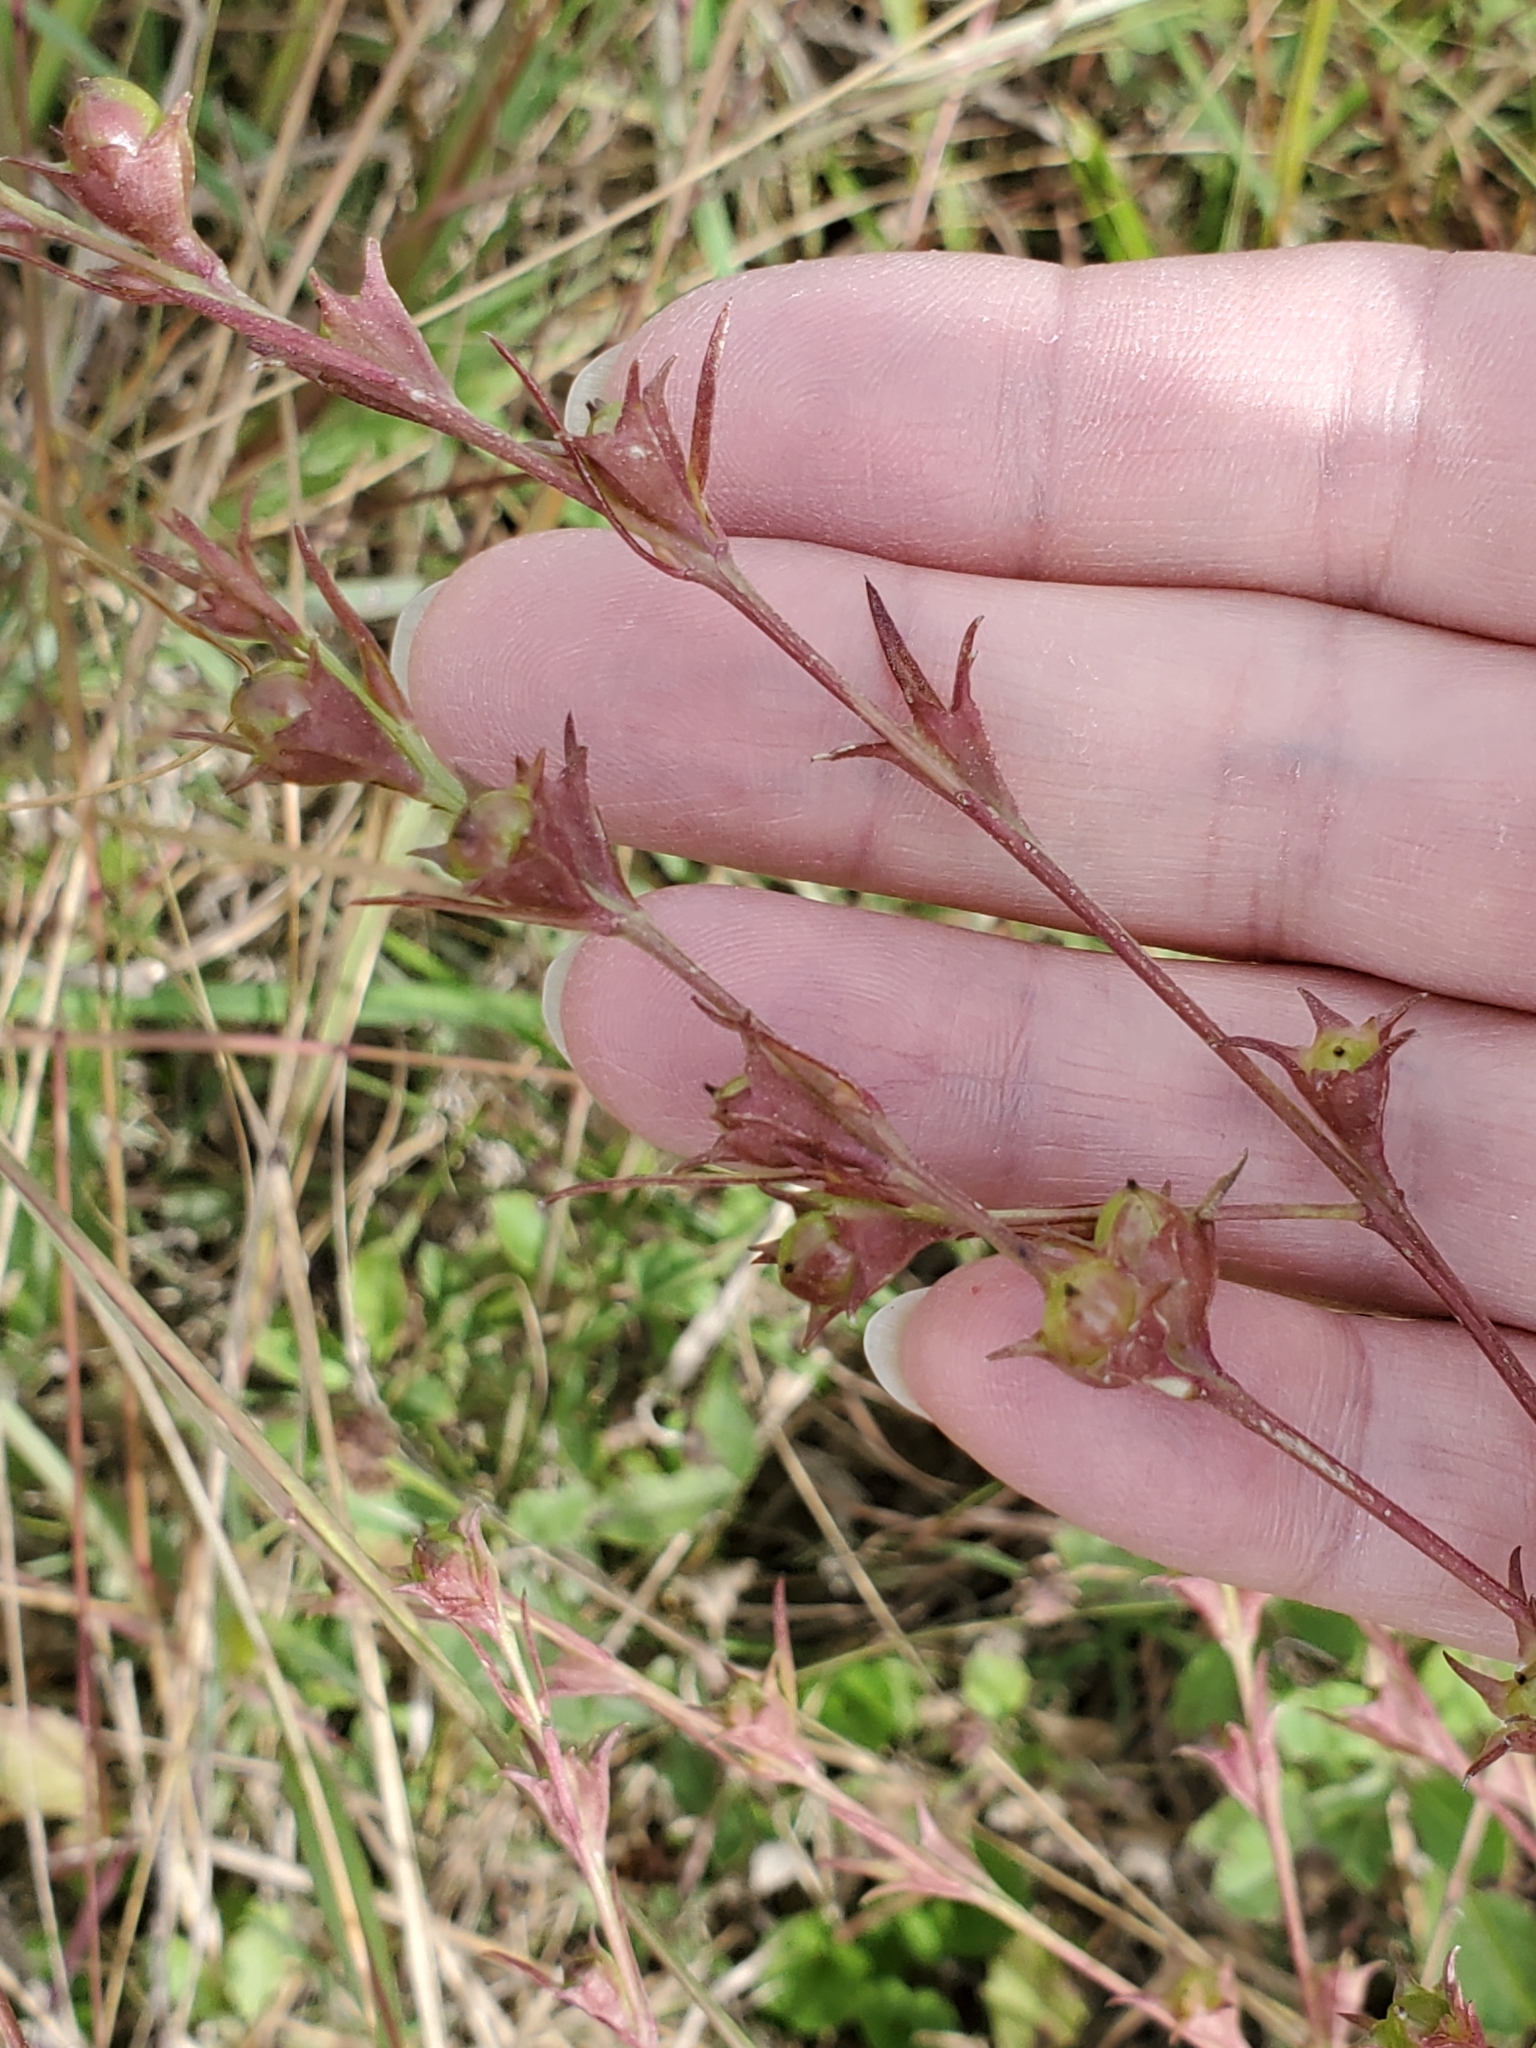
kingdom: Plantae
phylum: Tracheophyta
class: Magnoliopsida
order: Lamiales
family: Orobanchaceae
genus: Agalinis
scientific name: Agalinis heterophylla
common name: Prairie agalinis
